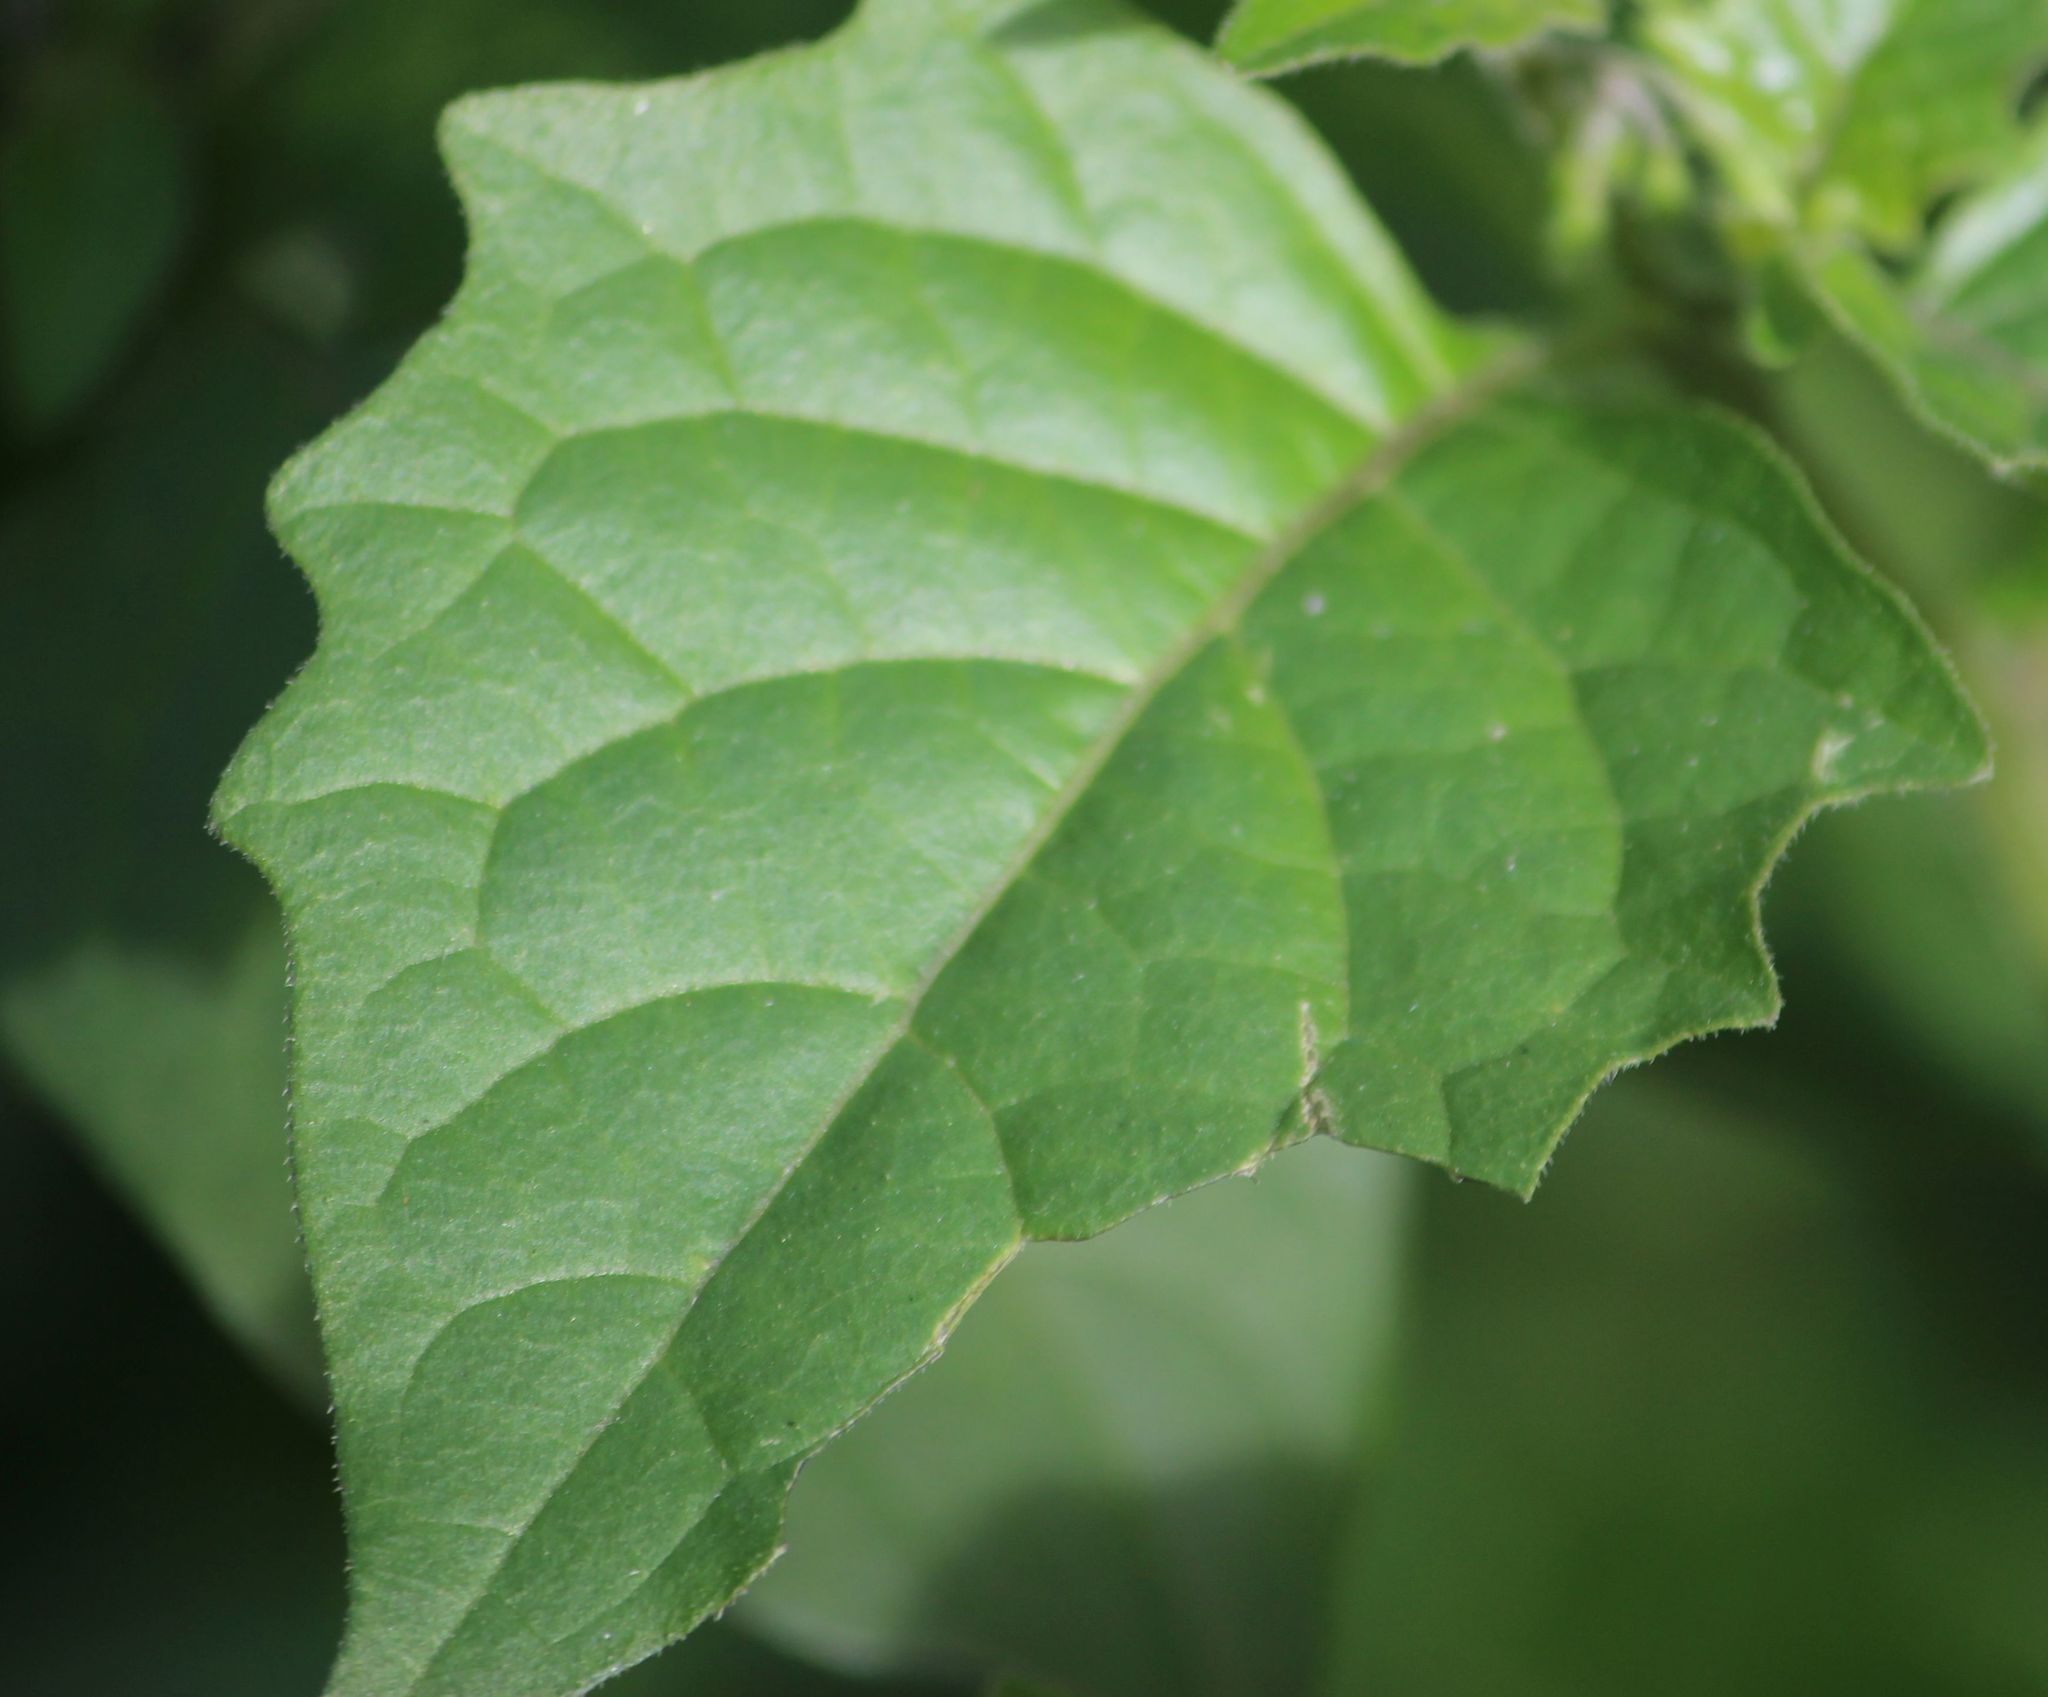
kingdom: Plantae
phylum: Tracheophyta
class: Magnoliopsida
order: Solanales
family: Solanaceae
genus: Solanum
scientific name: Solanum nigrum
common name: Black nightshade
